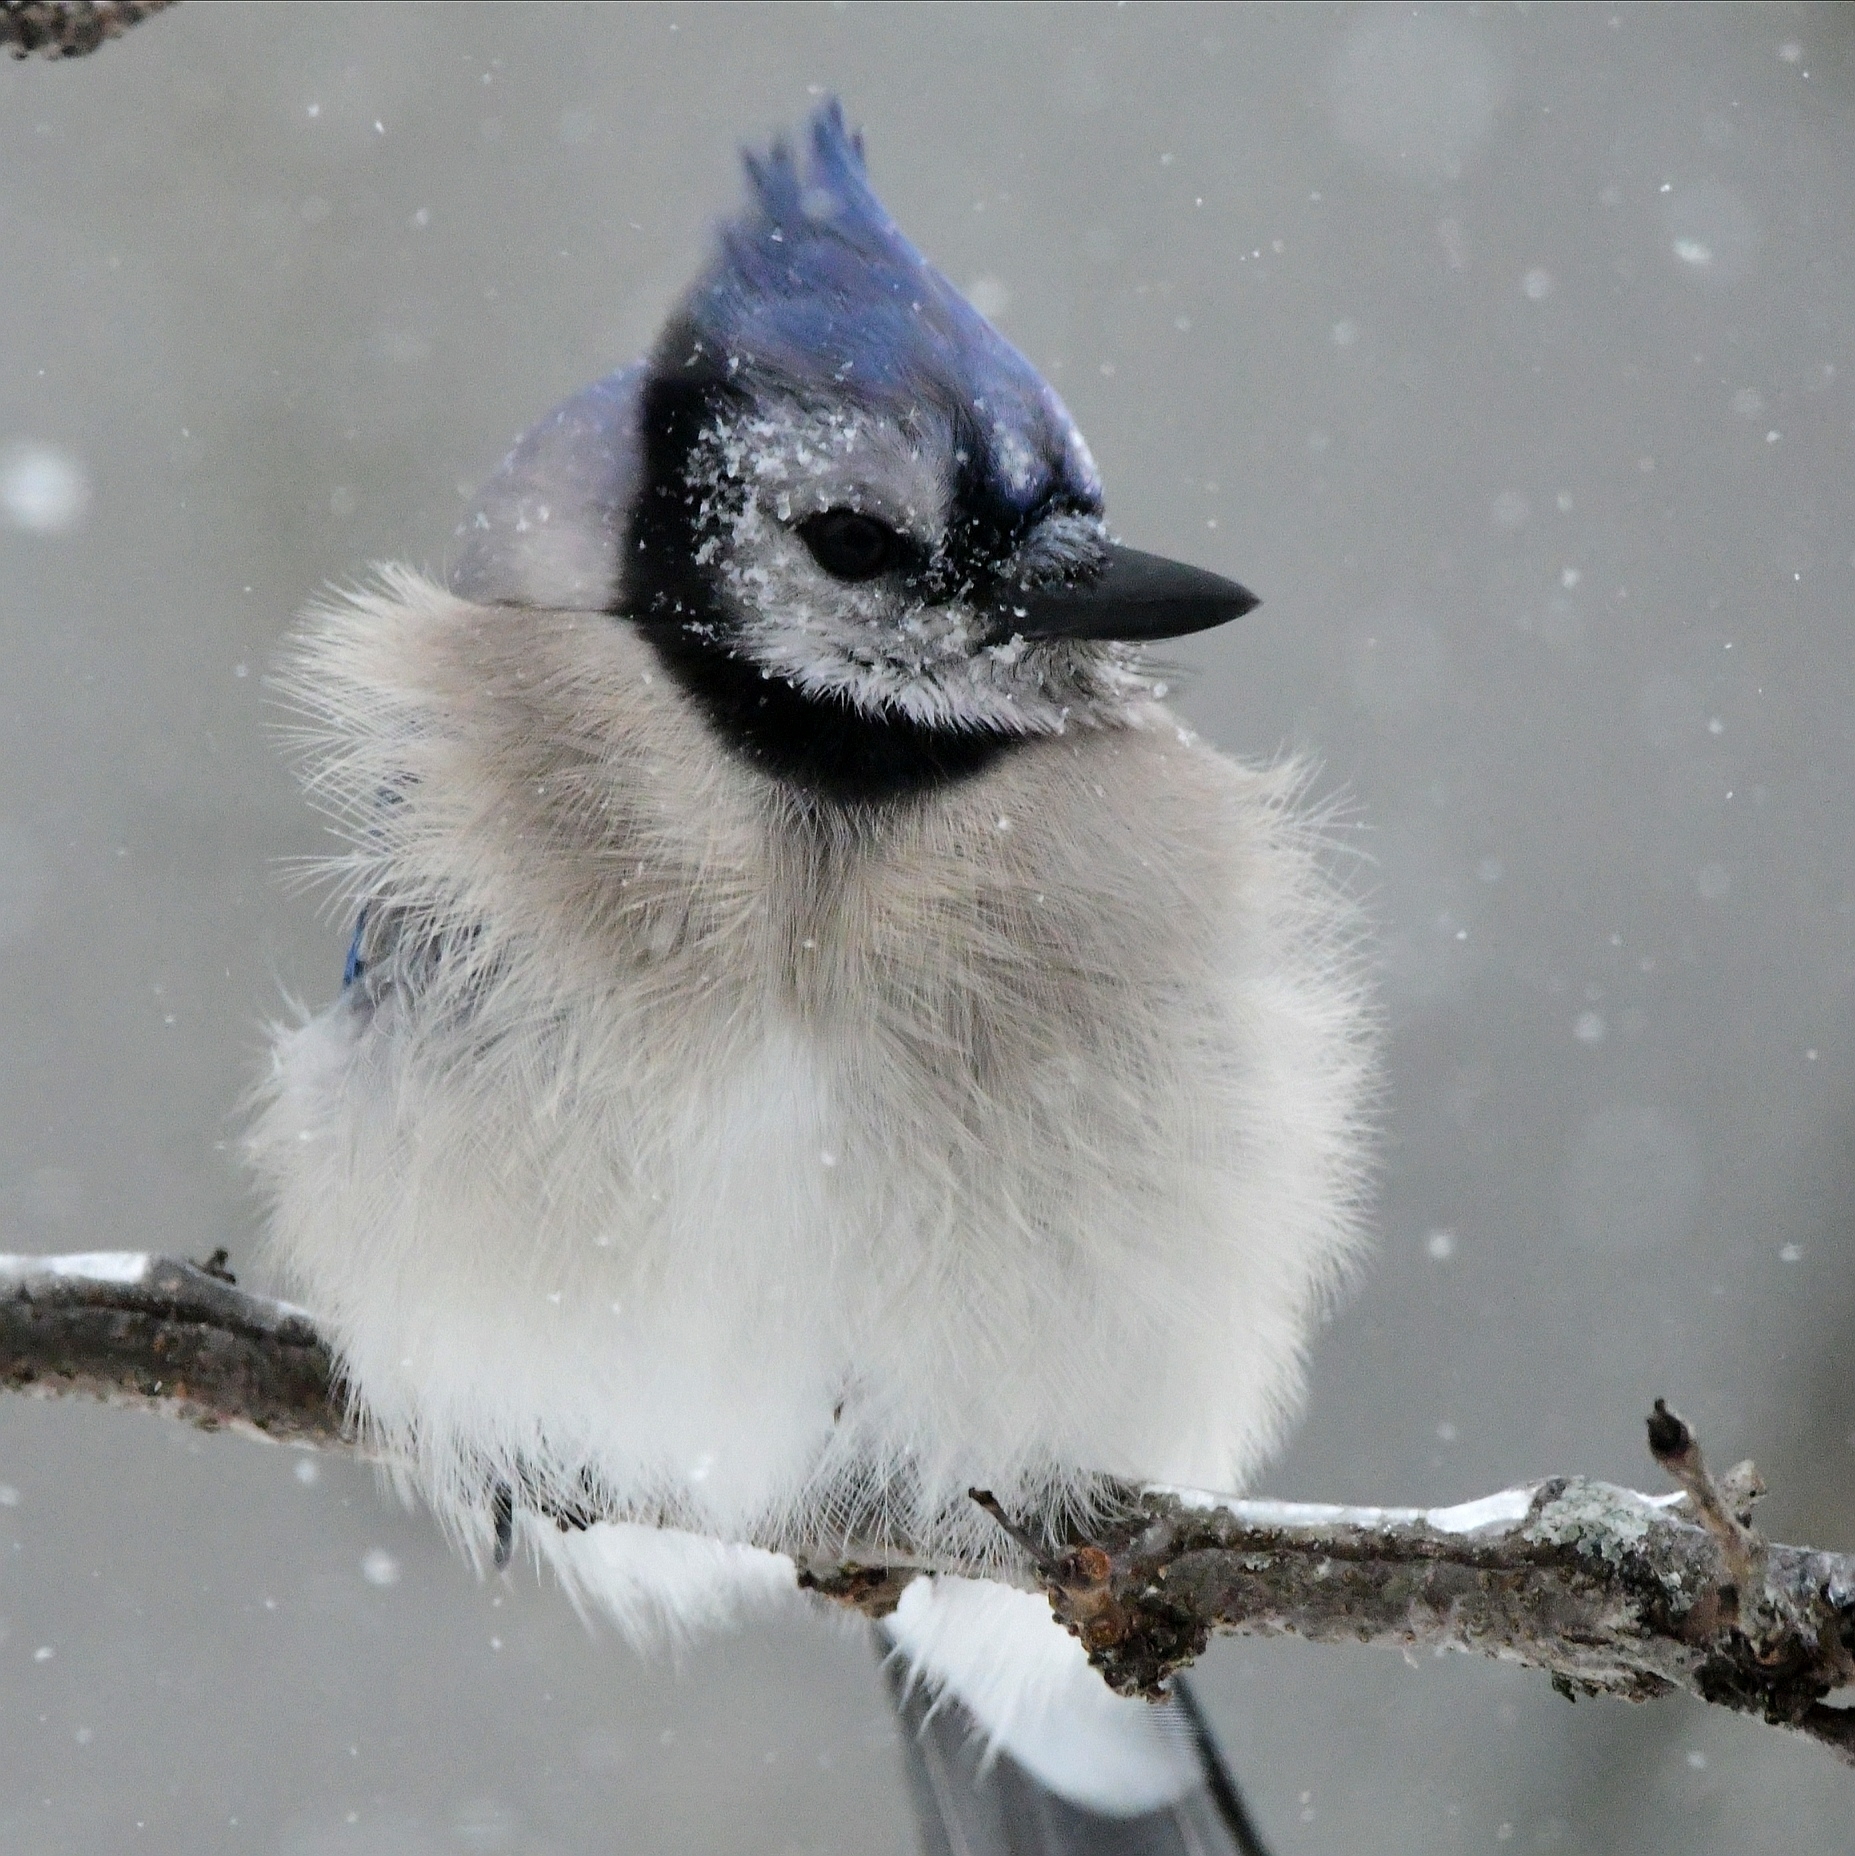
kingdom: Animalia
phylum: Chordata
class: Aves
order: Passeriformes
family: Corvidae
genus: Cyanocitta
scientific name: Cyanocitta cristata
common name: Blue jay
